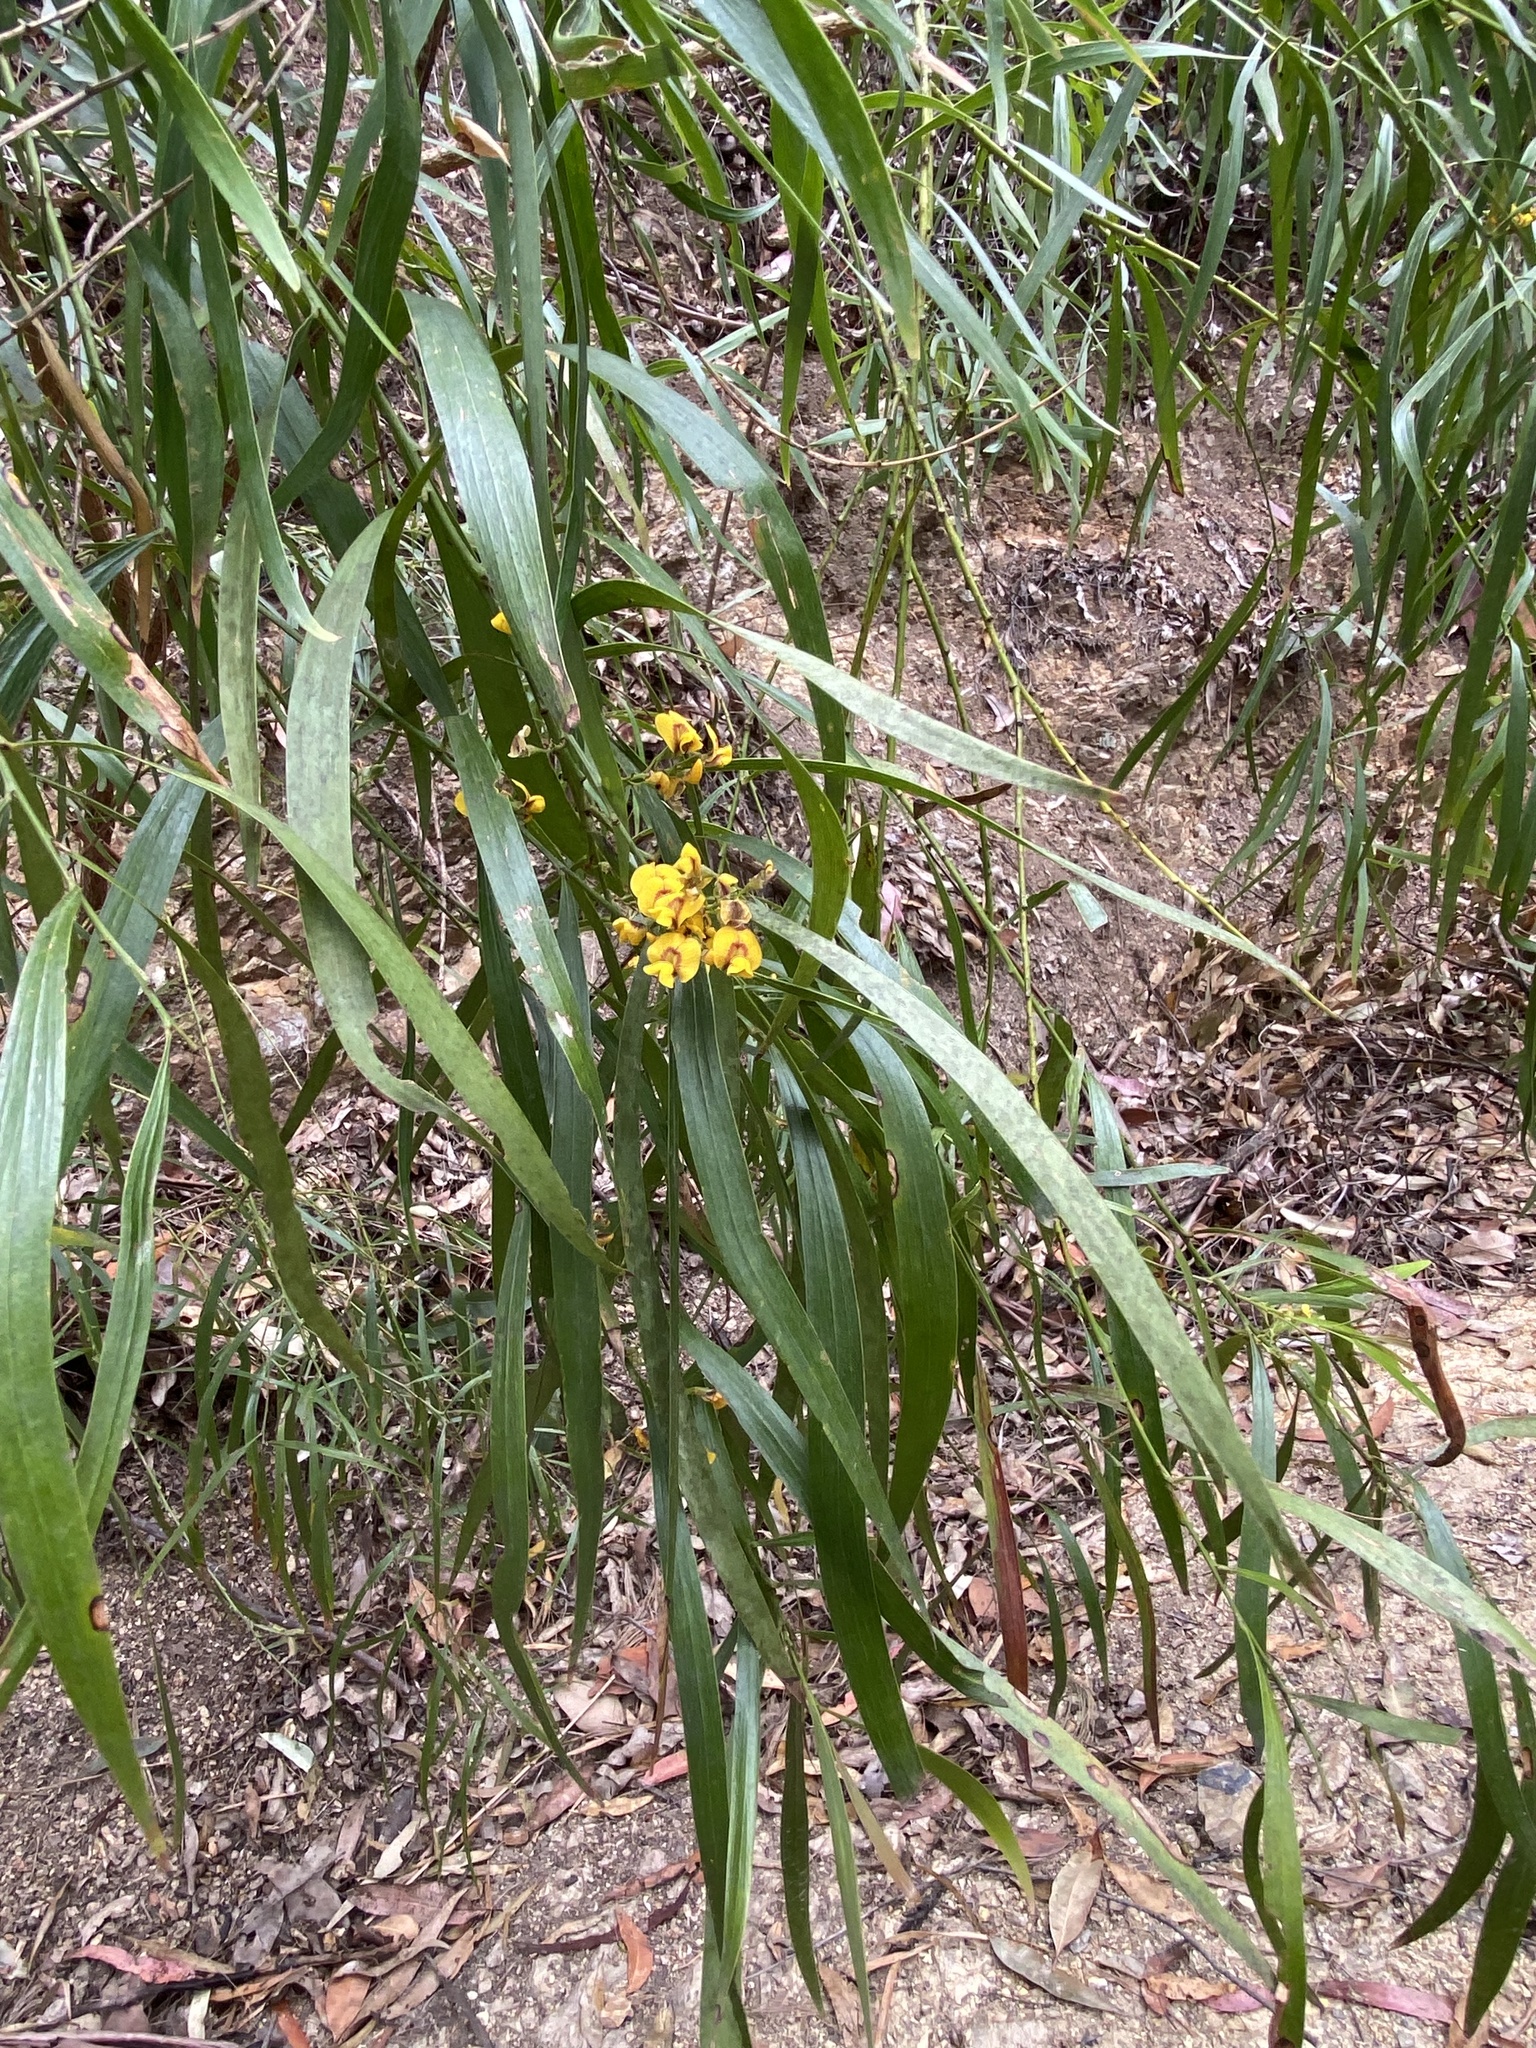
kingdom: Plantae
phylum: Tracheophyta
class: Magnoliopsida
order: Fabales
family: Fabaceae
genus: Daviesia
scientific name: Daviesia arborea
